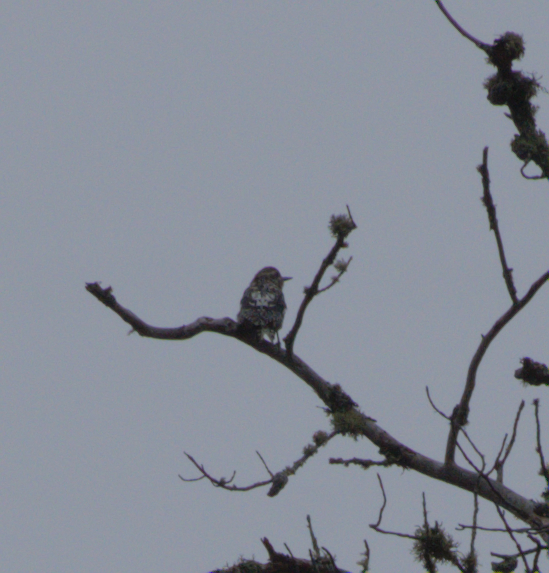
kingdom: Animalia
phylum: Chordata
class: Aves
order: Piciformes
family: Picidae
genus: Sphyrapicus
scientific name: Sphyrapicus varius
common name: Yellow-bellied sapsucker
